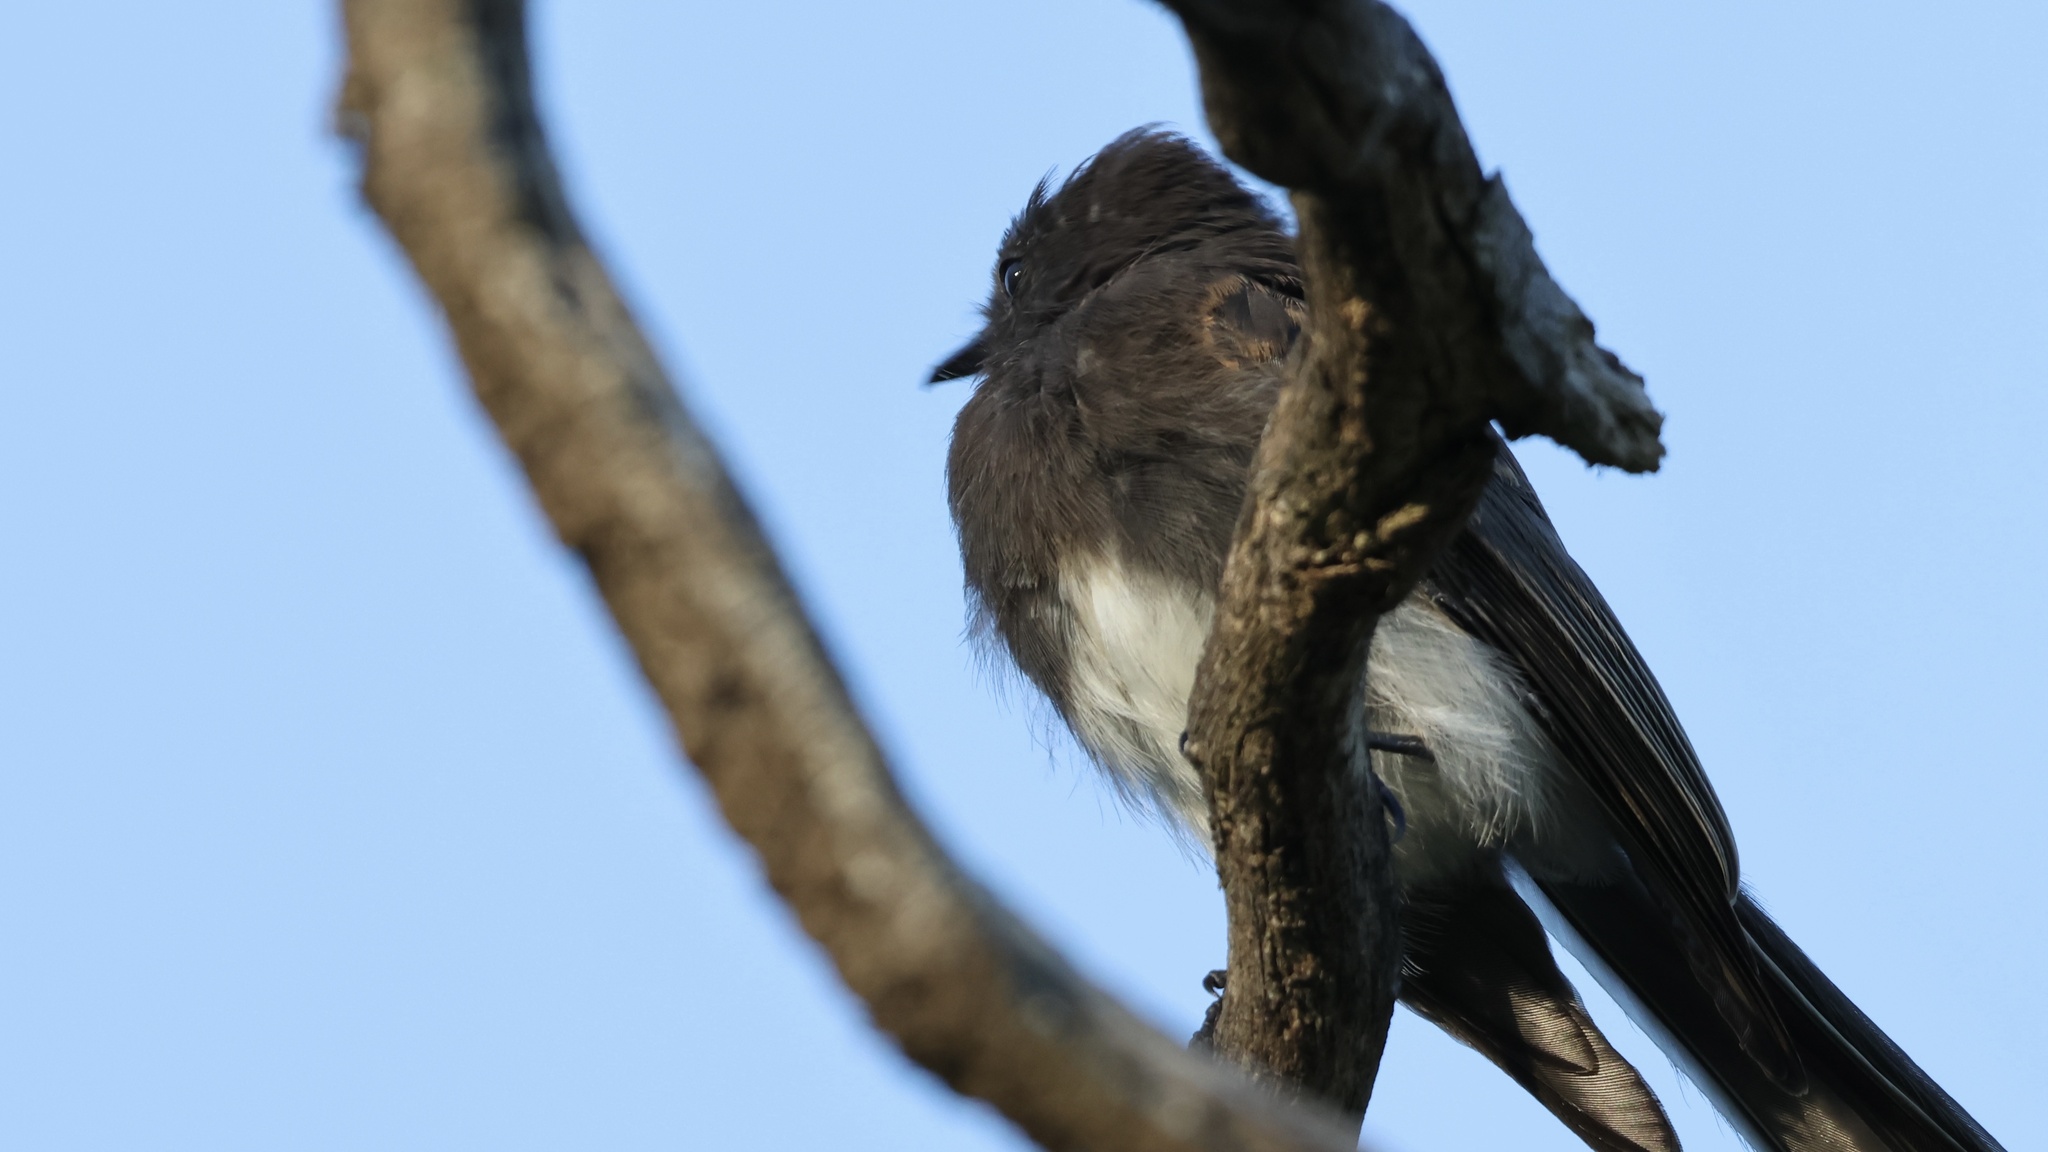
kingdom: Animalia
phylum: Chordata
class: Aves
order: Passeriformes
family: Tyrannidae
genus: Sayornis
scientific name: Sayornis nigricans
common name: Black phoebe
